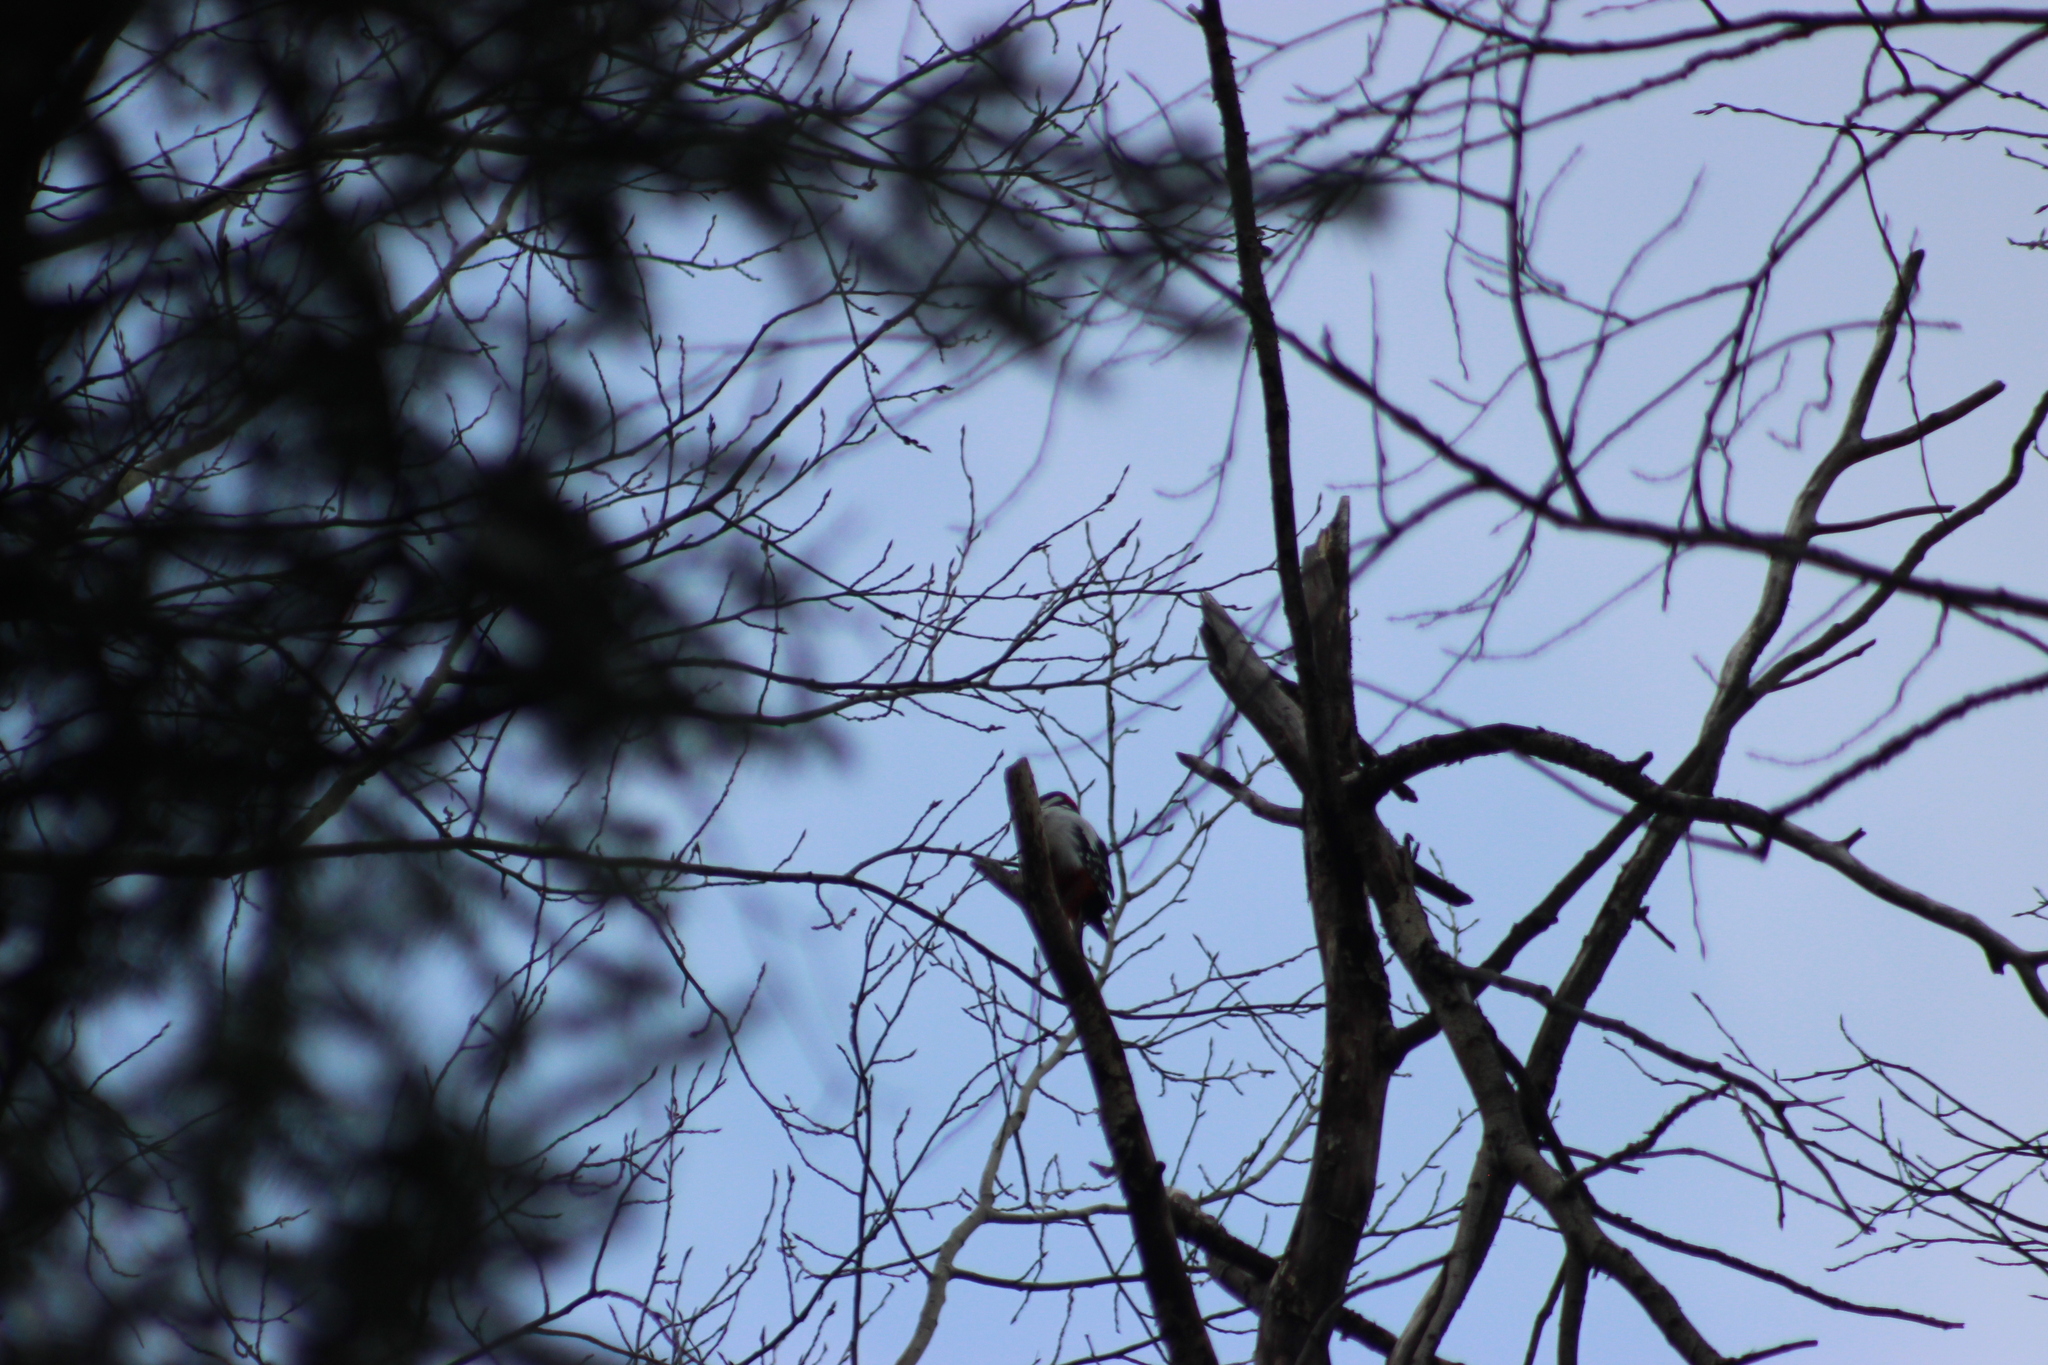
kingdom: Animalia
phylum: Chordata
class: Aves
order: Piciformes
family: Picidae
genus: Dendrocopos
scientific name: Dendrocopos major
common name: Great spotted woodpecker
